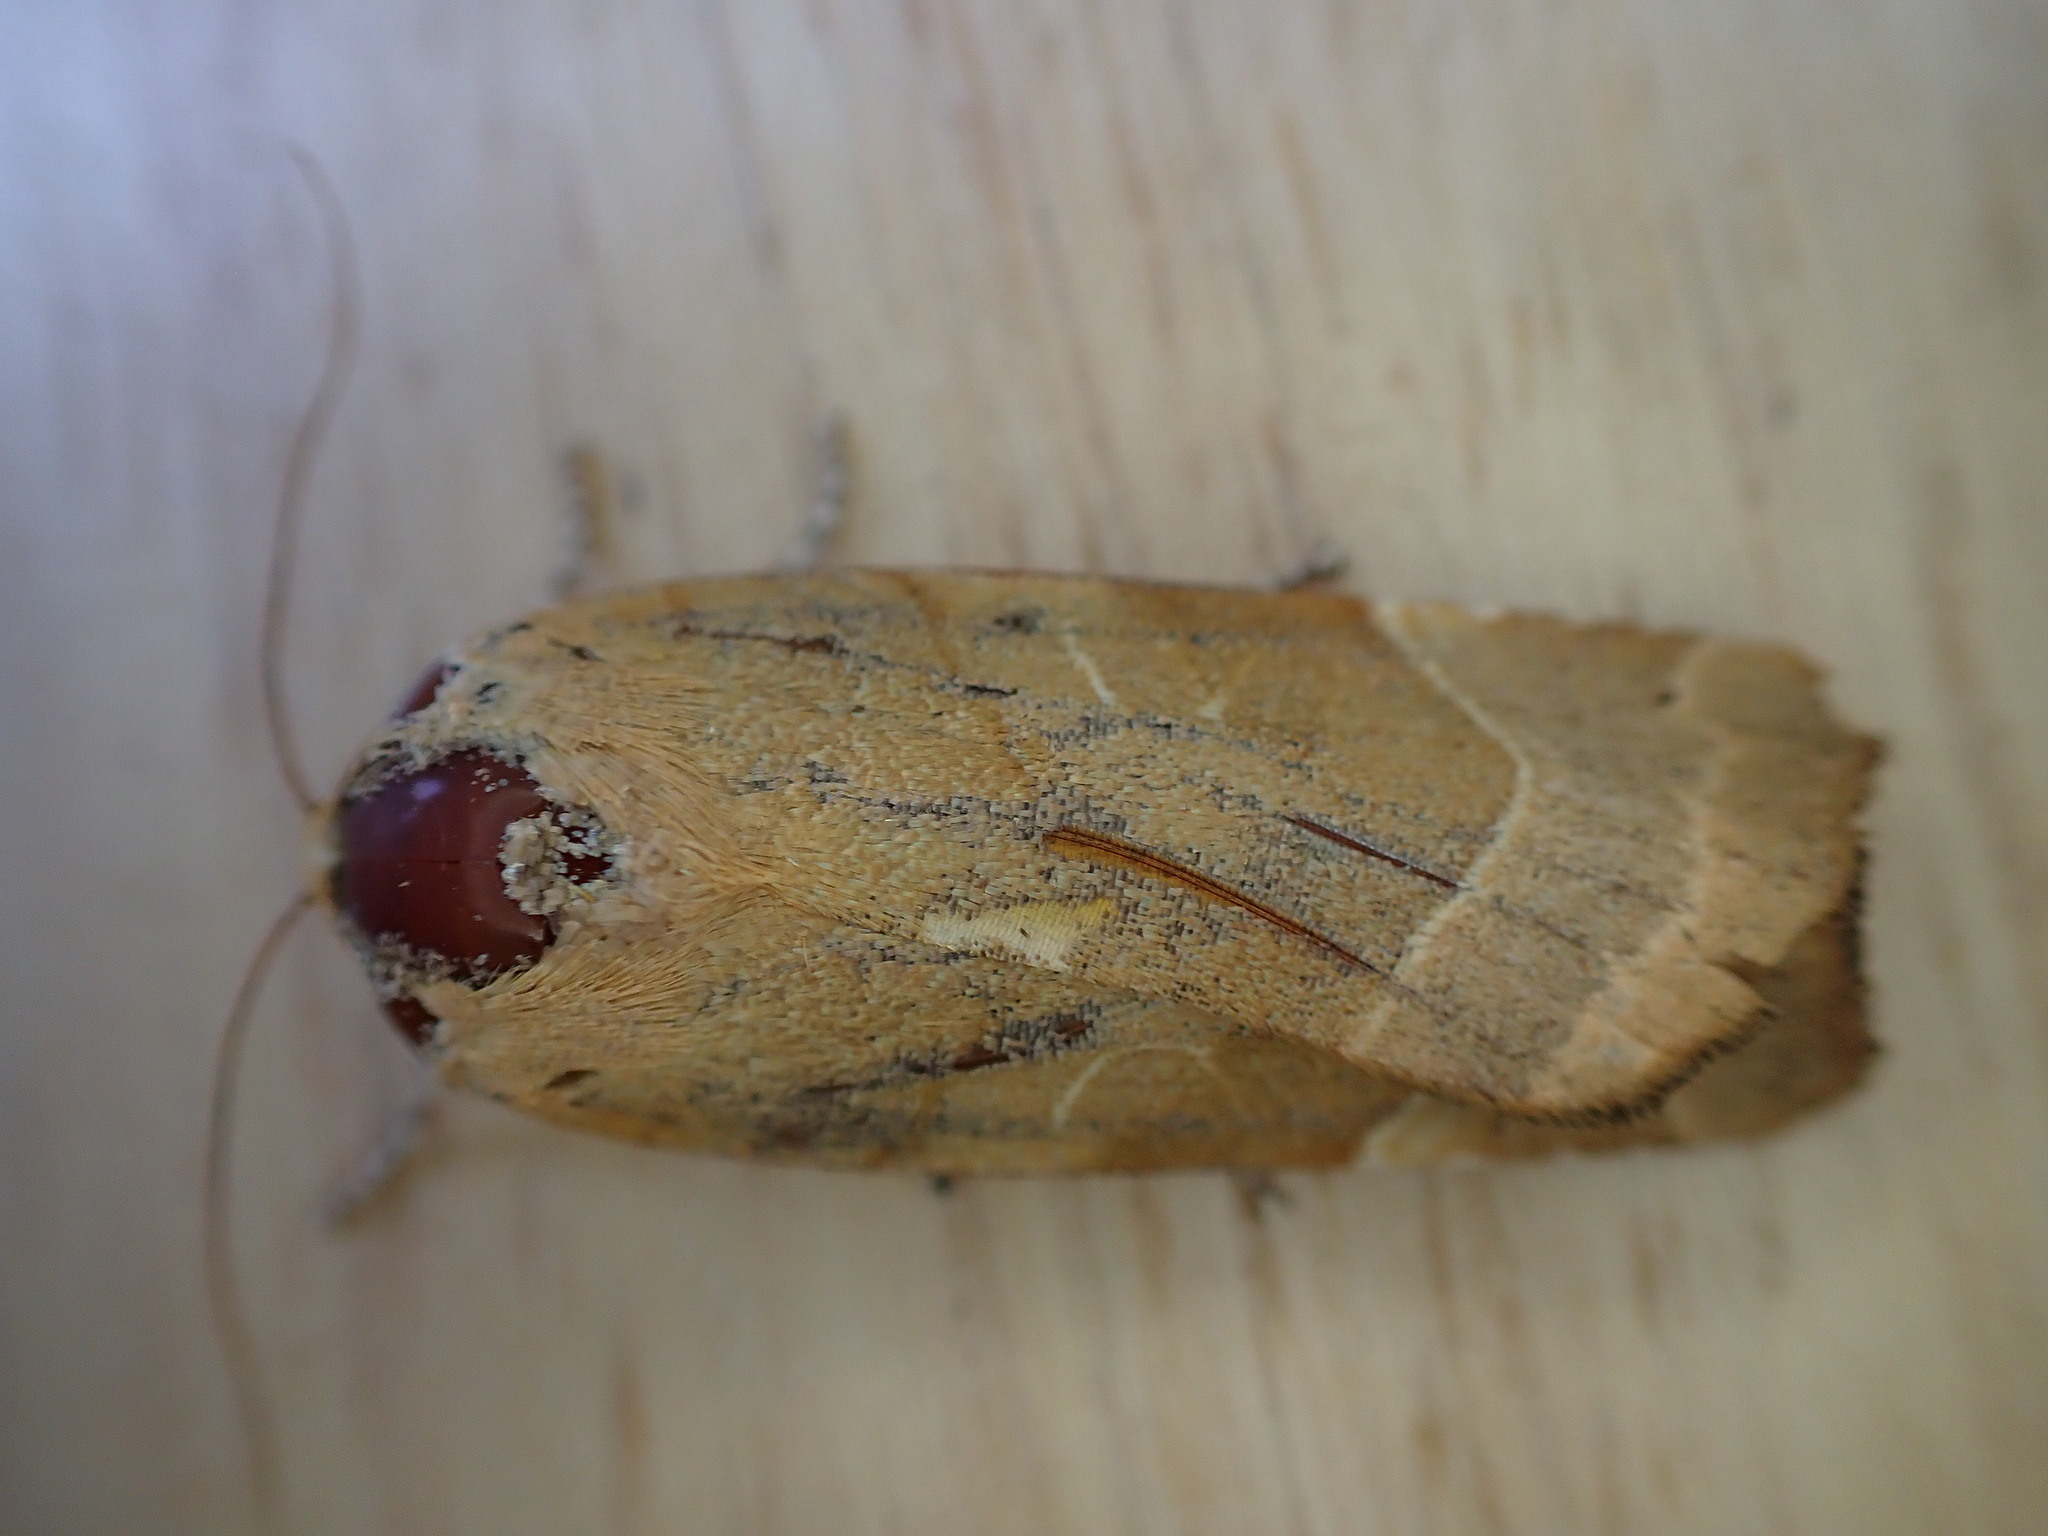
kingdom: Animalia
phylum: Arthropoda
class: Insecta
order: Lepidoptera
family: Noctuidae
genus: Noctua
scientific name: Noctua fimbriata
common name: Broad-bordered yellow underwing
